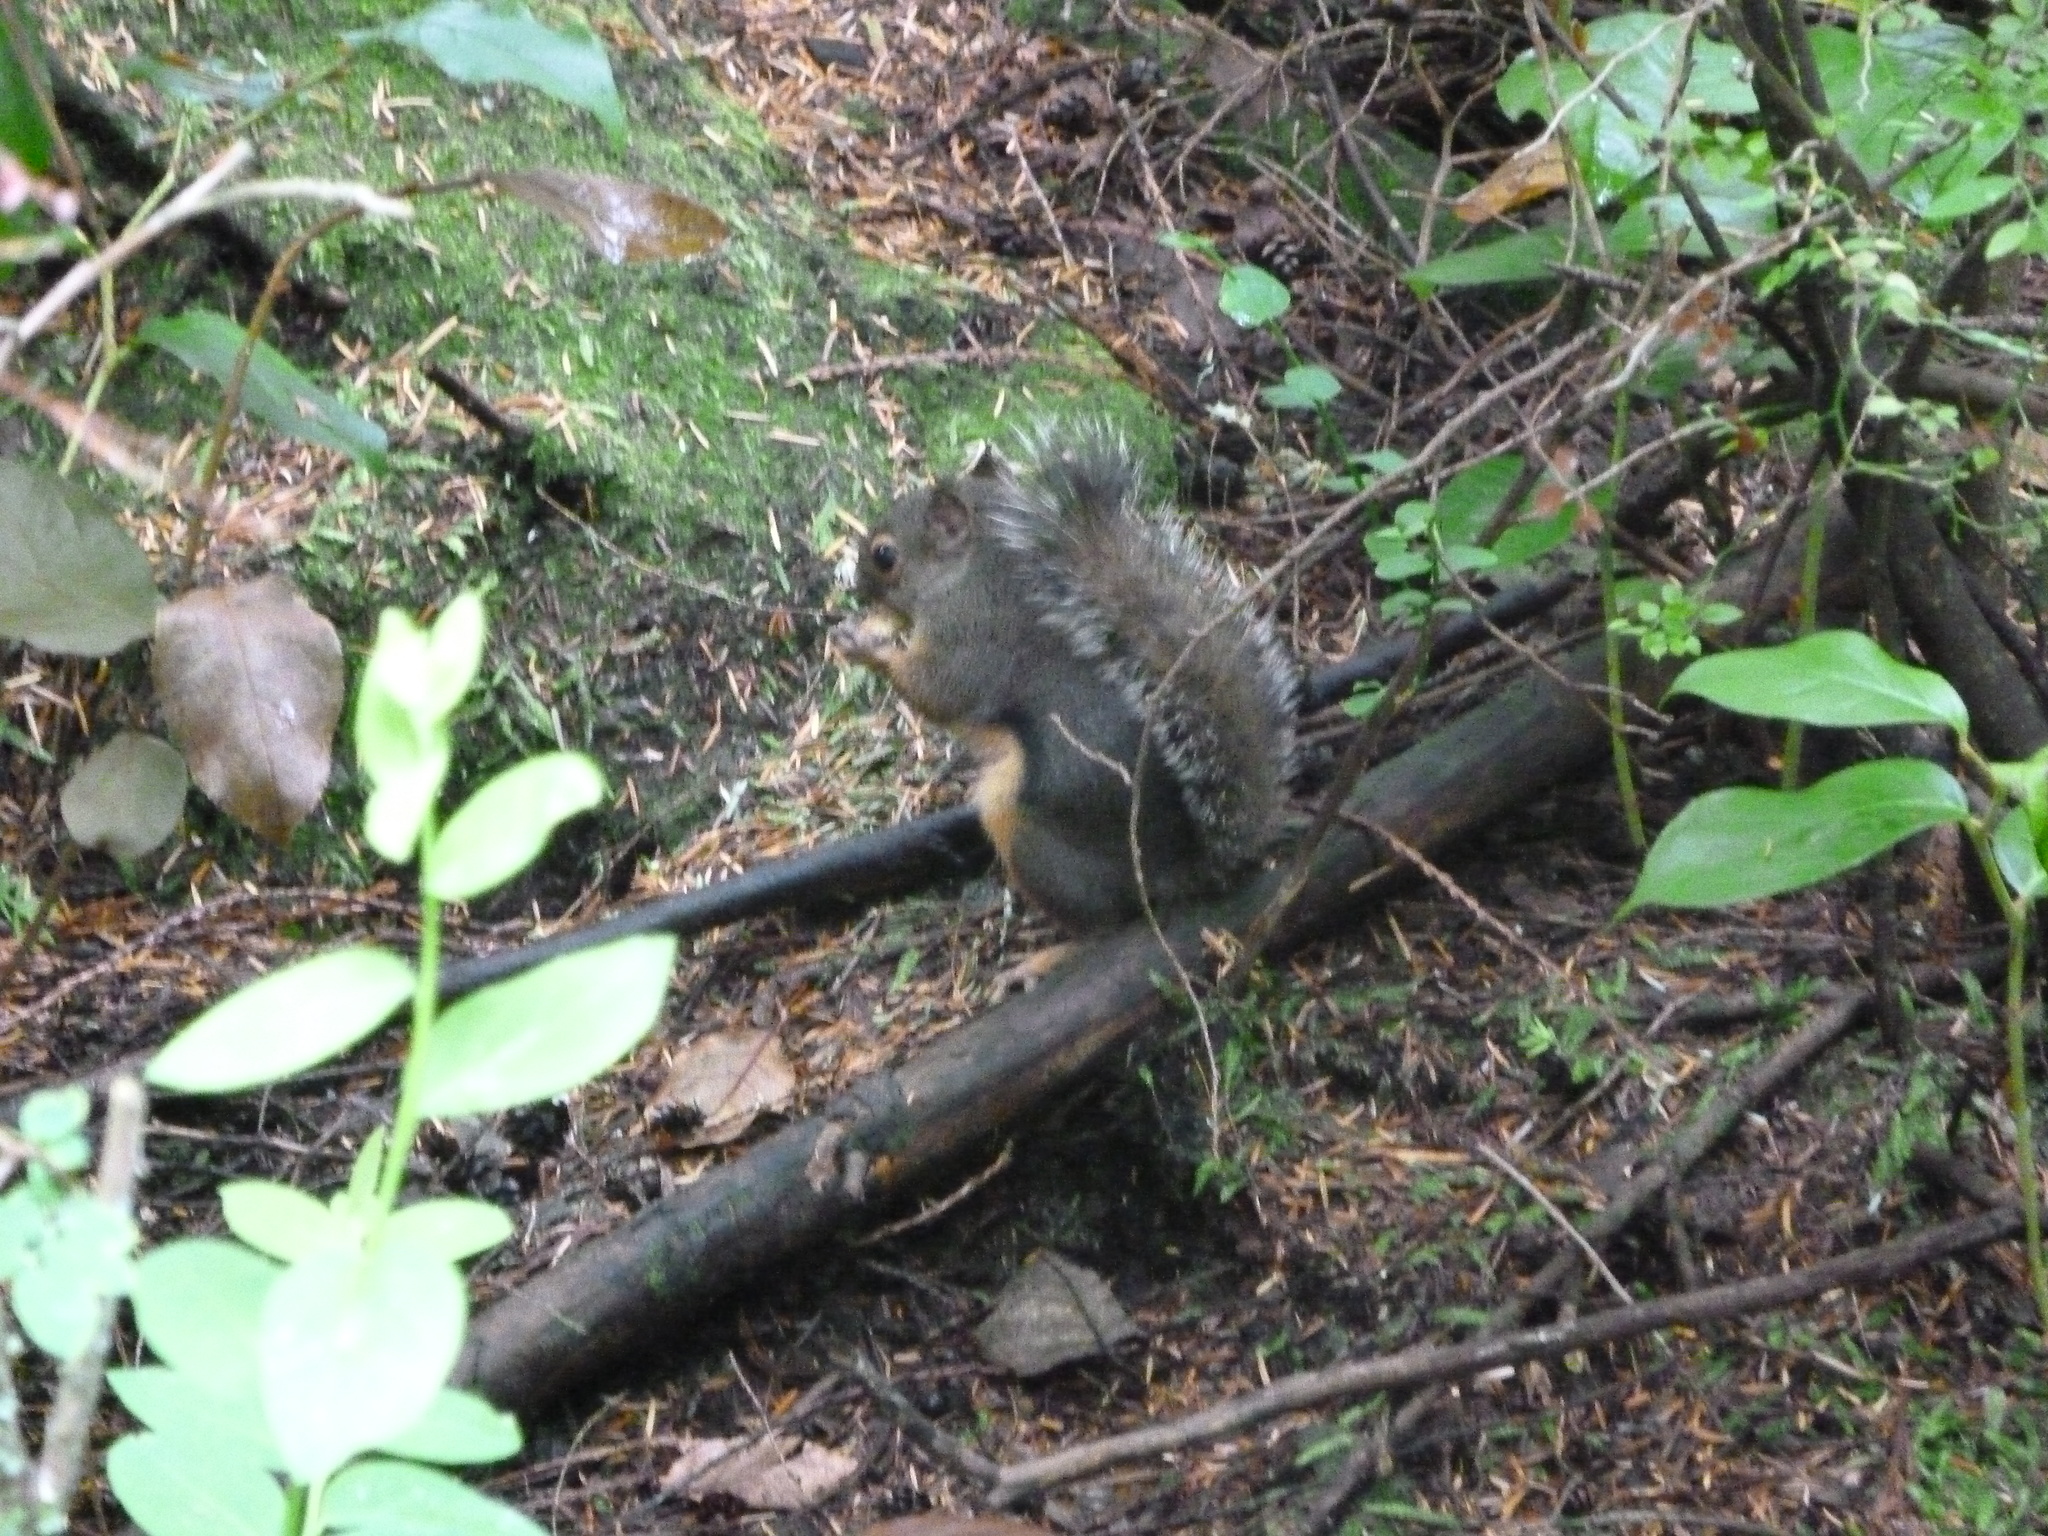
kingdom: Animalia
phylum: Chordata
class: Mammalia
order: Rodentia
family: Sciuridae
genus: Tamiasciurus
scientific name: Tamiasciurus douglasii
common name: Douglas's squirrel
